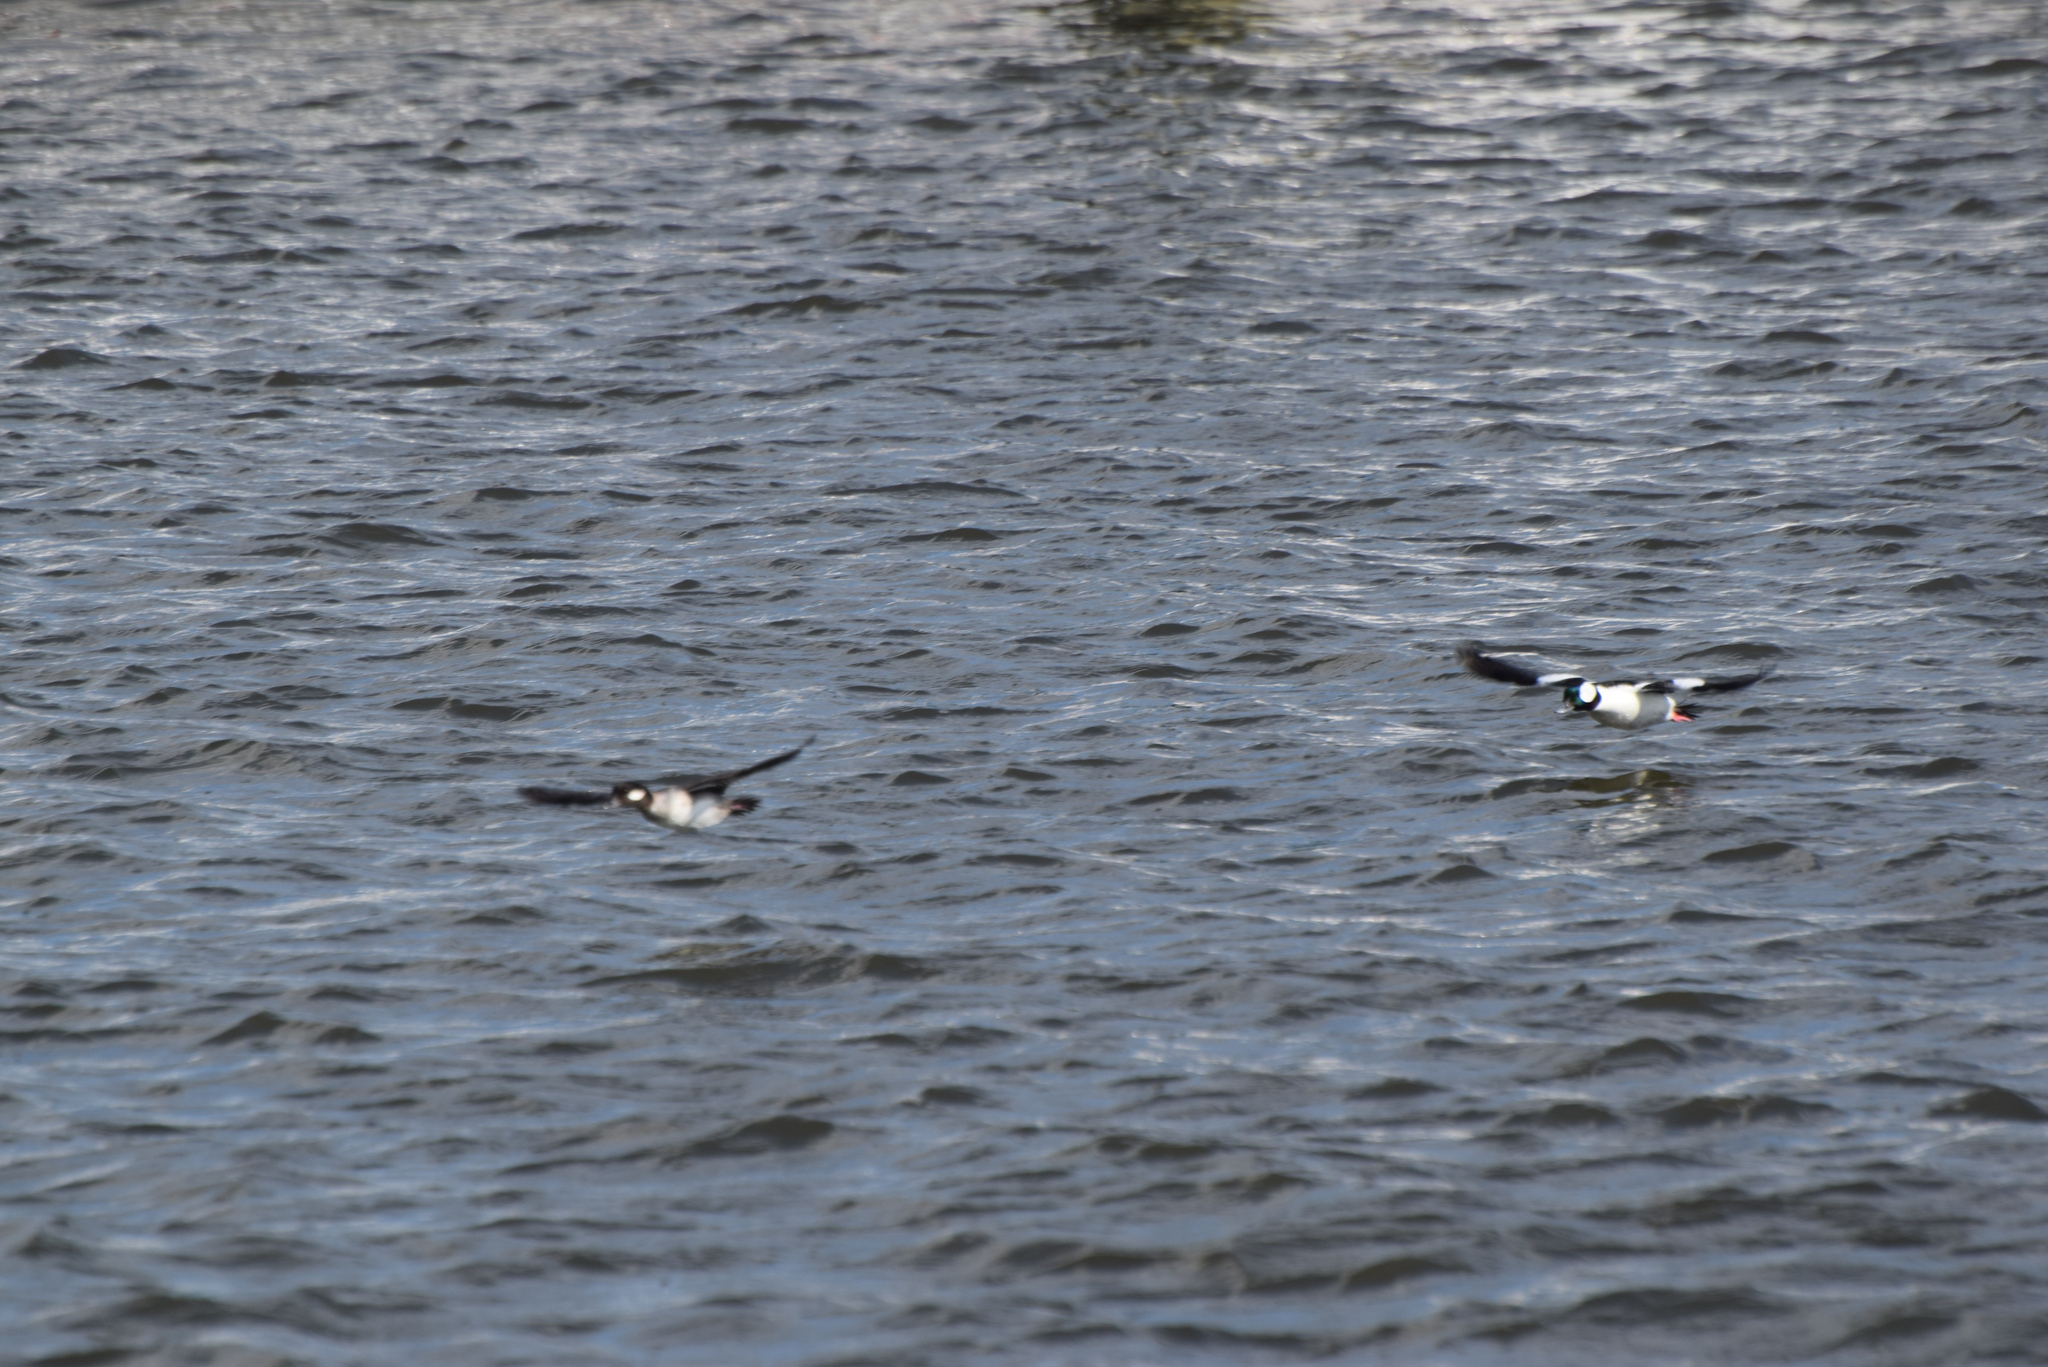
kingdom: Animalia
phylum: Chordata
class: Aves
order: Anseriformes
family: Anatidae
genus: Bucephala
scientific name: Bucephala albeola
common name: Bufflehead
